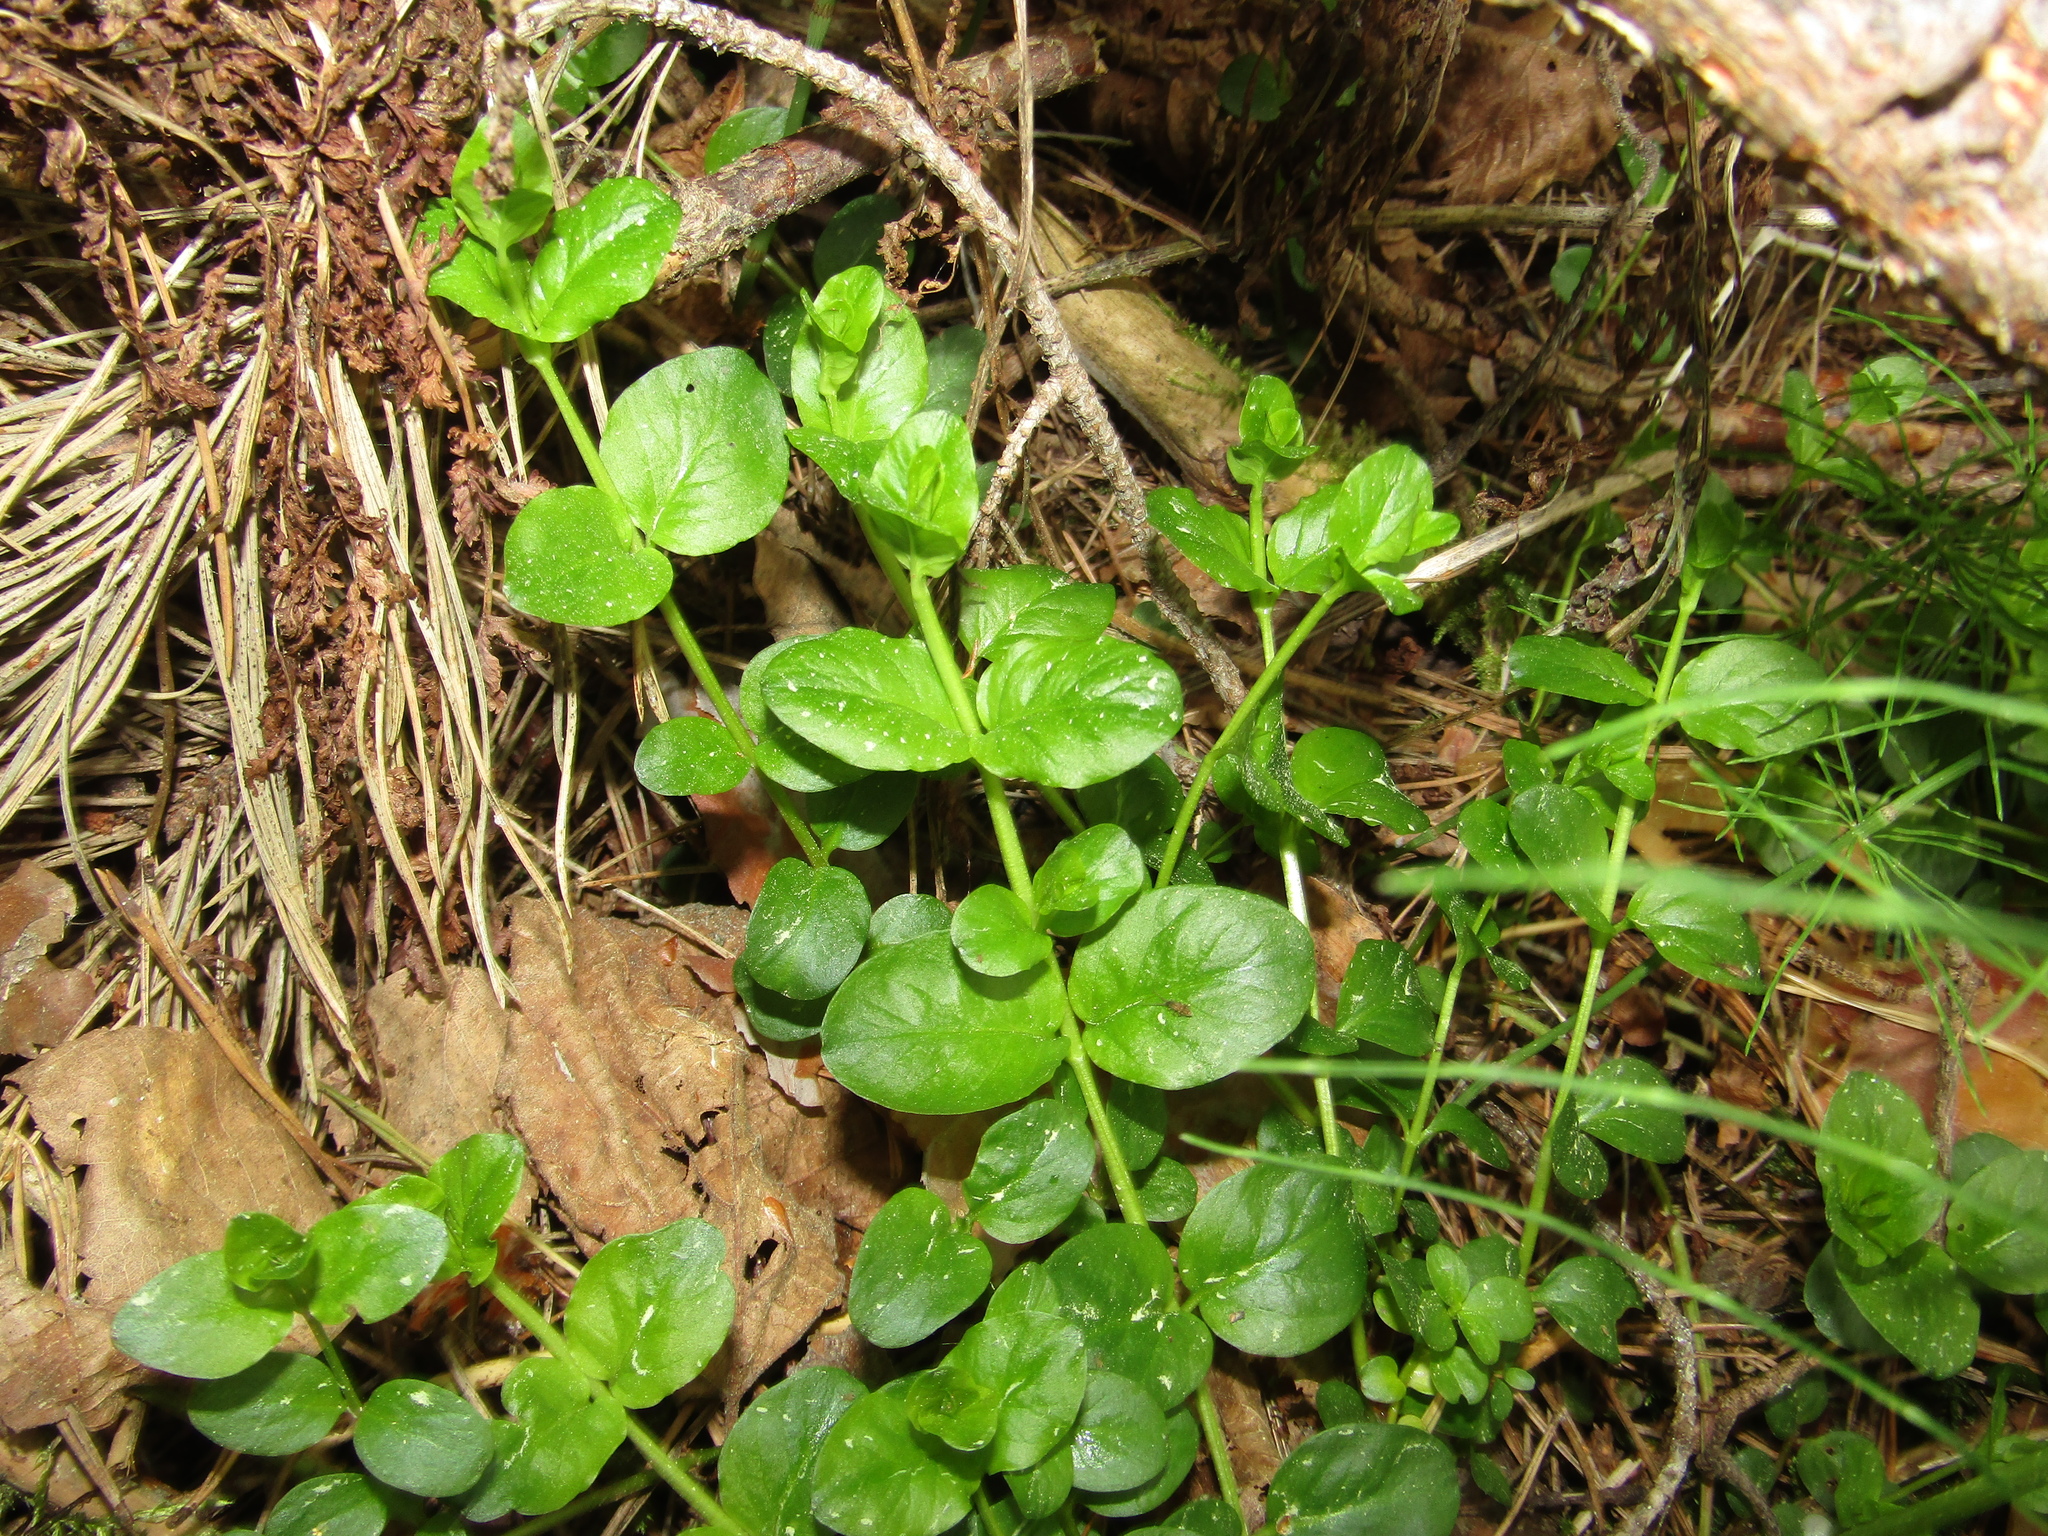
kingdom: Plantae
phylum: Tracheophyta
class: Magnoliopsida
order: Ericales
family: Primulaceae
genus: Lysimachia
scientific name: Lysimachia nummularia
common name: Moneywort
